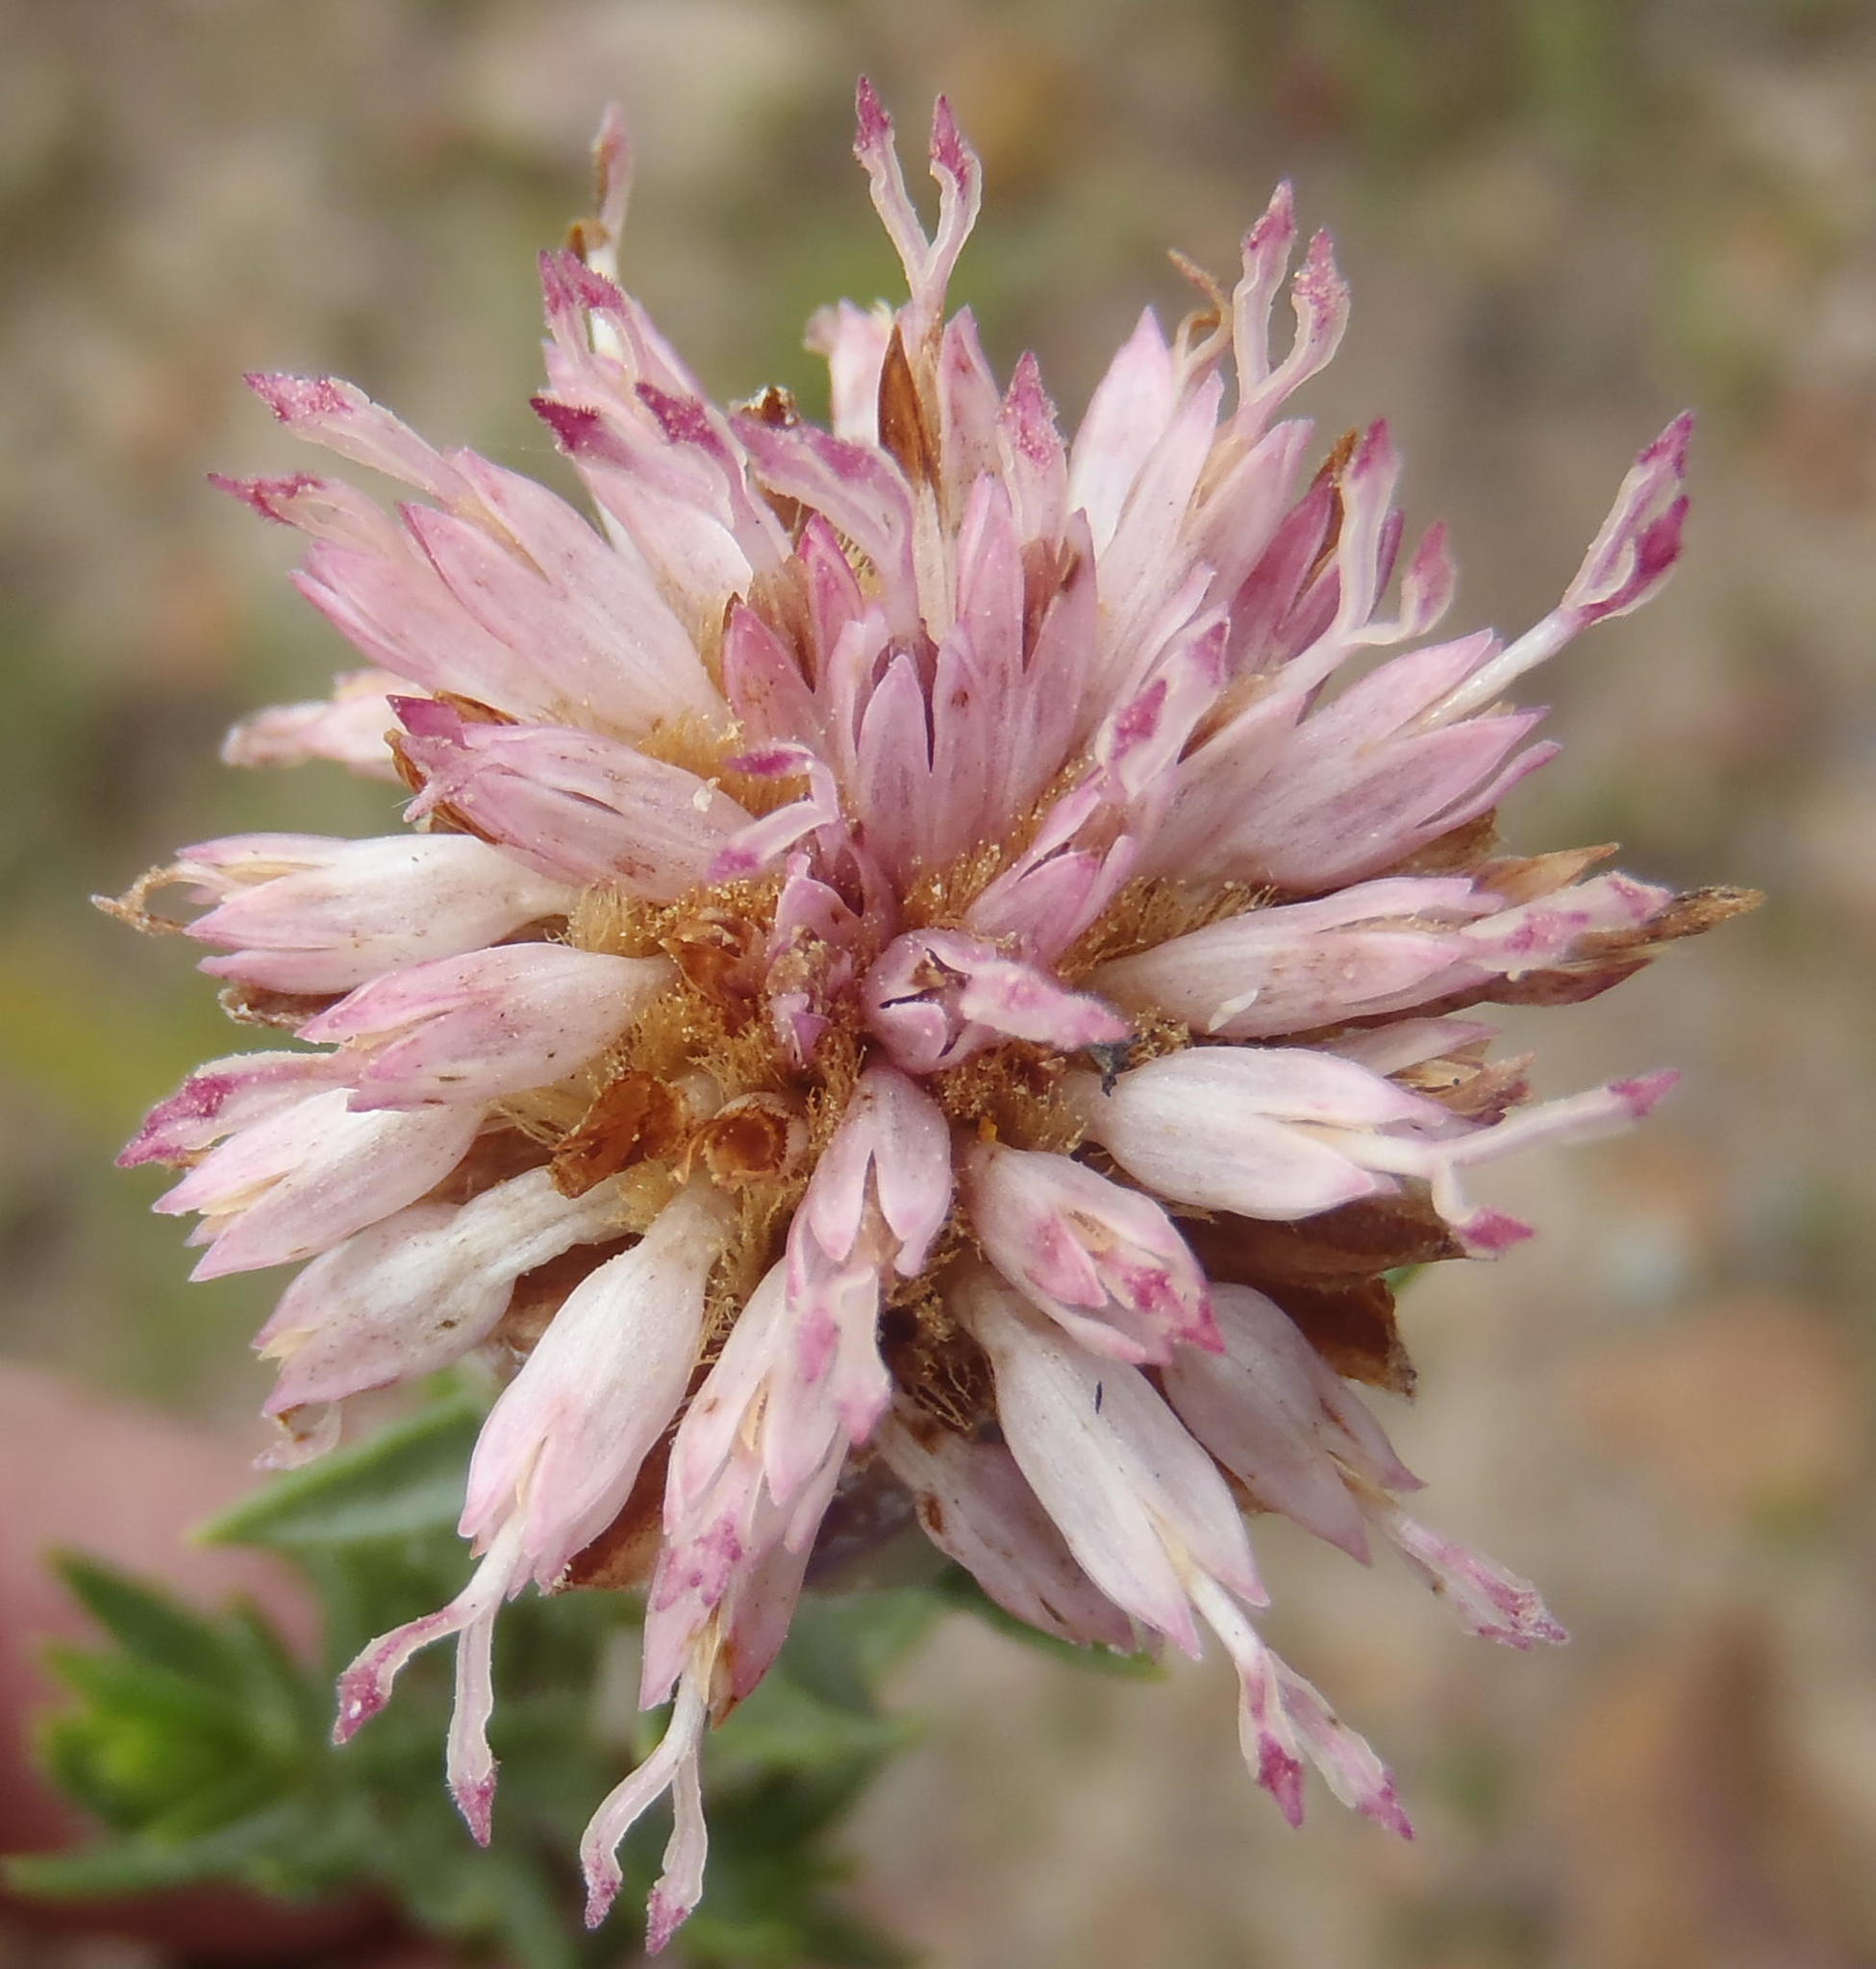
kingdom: Plantae
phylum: Tracheophyta
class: Magnoliopsida
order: Asterales
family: Asteraceae
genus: Pteronia
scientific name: Pteronia hirsuta
